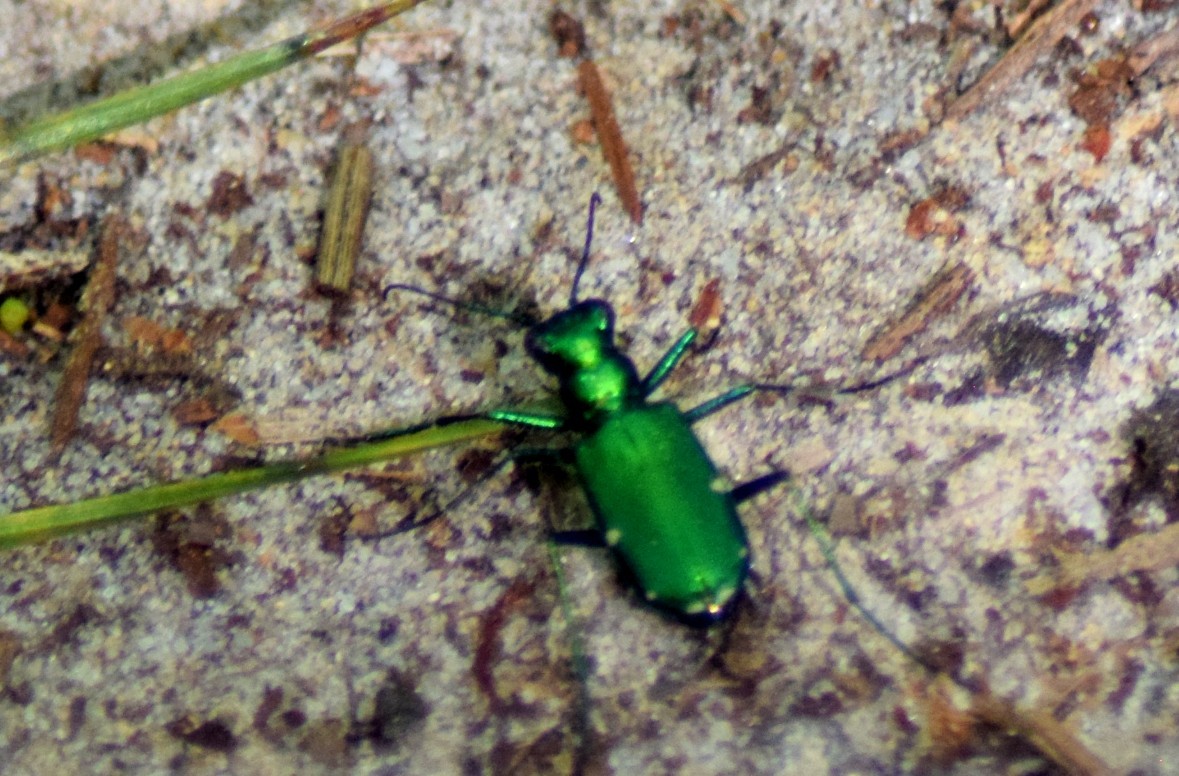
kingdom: Animalia
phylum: Arthropoda
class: Insecta
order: Coleoptera
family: Carabidae
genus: Cicindela
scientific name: Cicindela sexguttata
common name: Six-spotted tiger beetle
